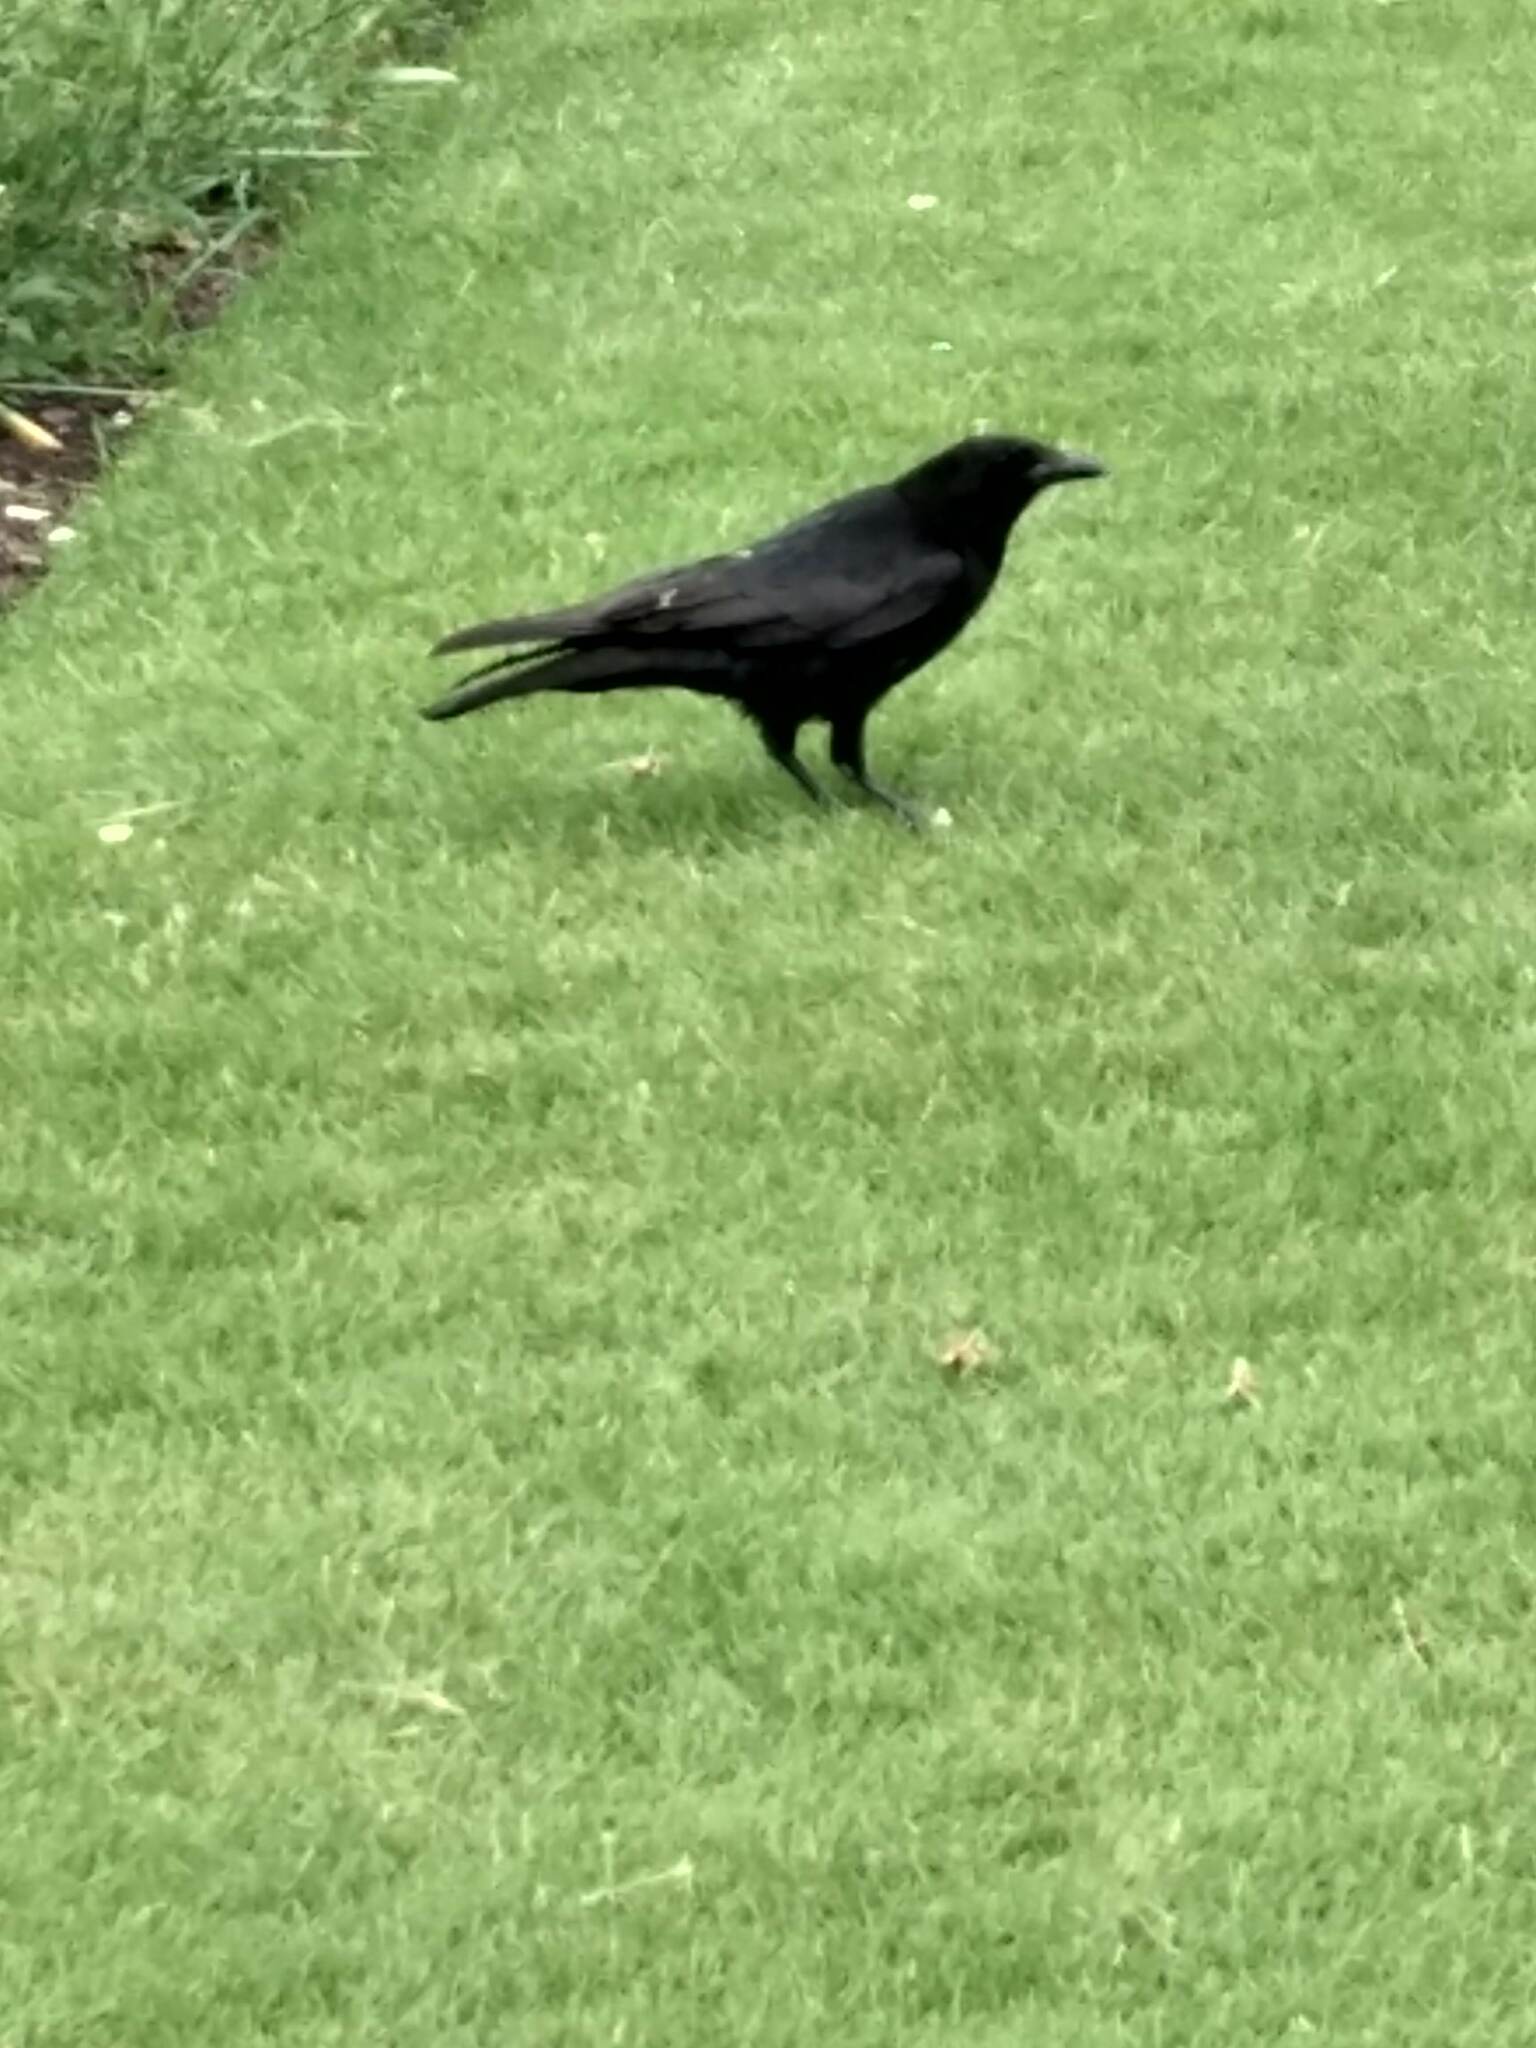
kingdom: Animalia
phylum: Chordata
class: Aves
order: Passeriformes
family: Corvidae
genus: Corvus
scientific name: Corvus corone
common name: Carrion crow
